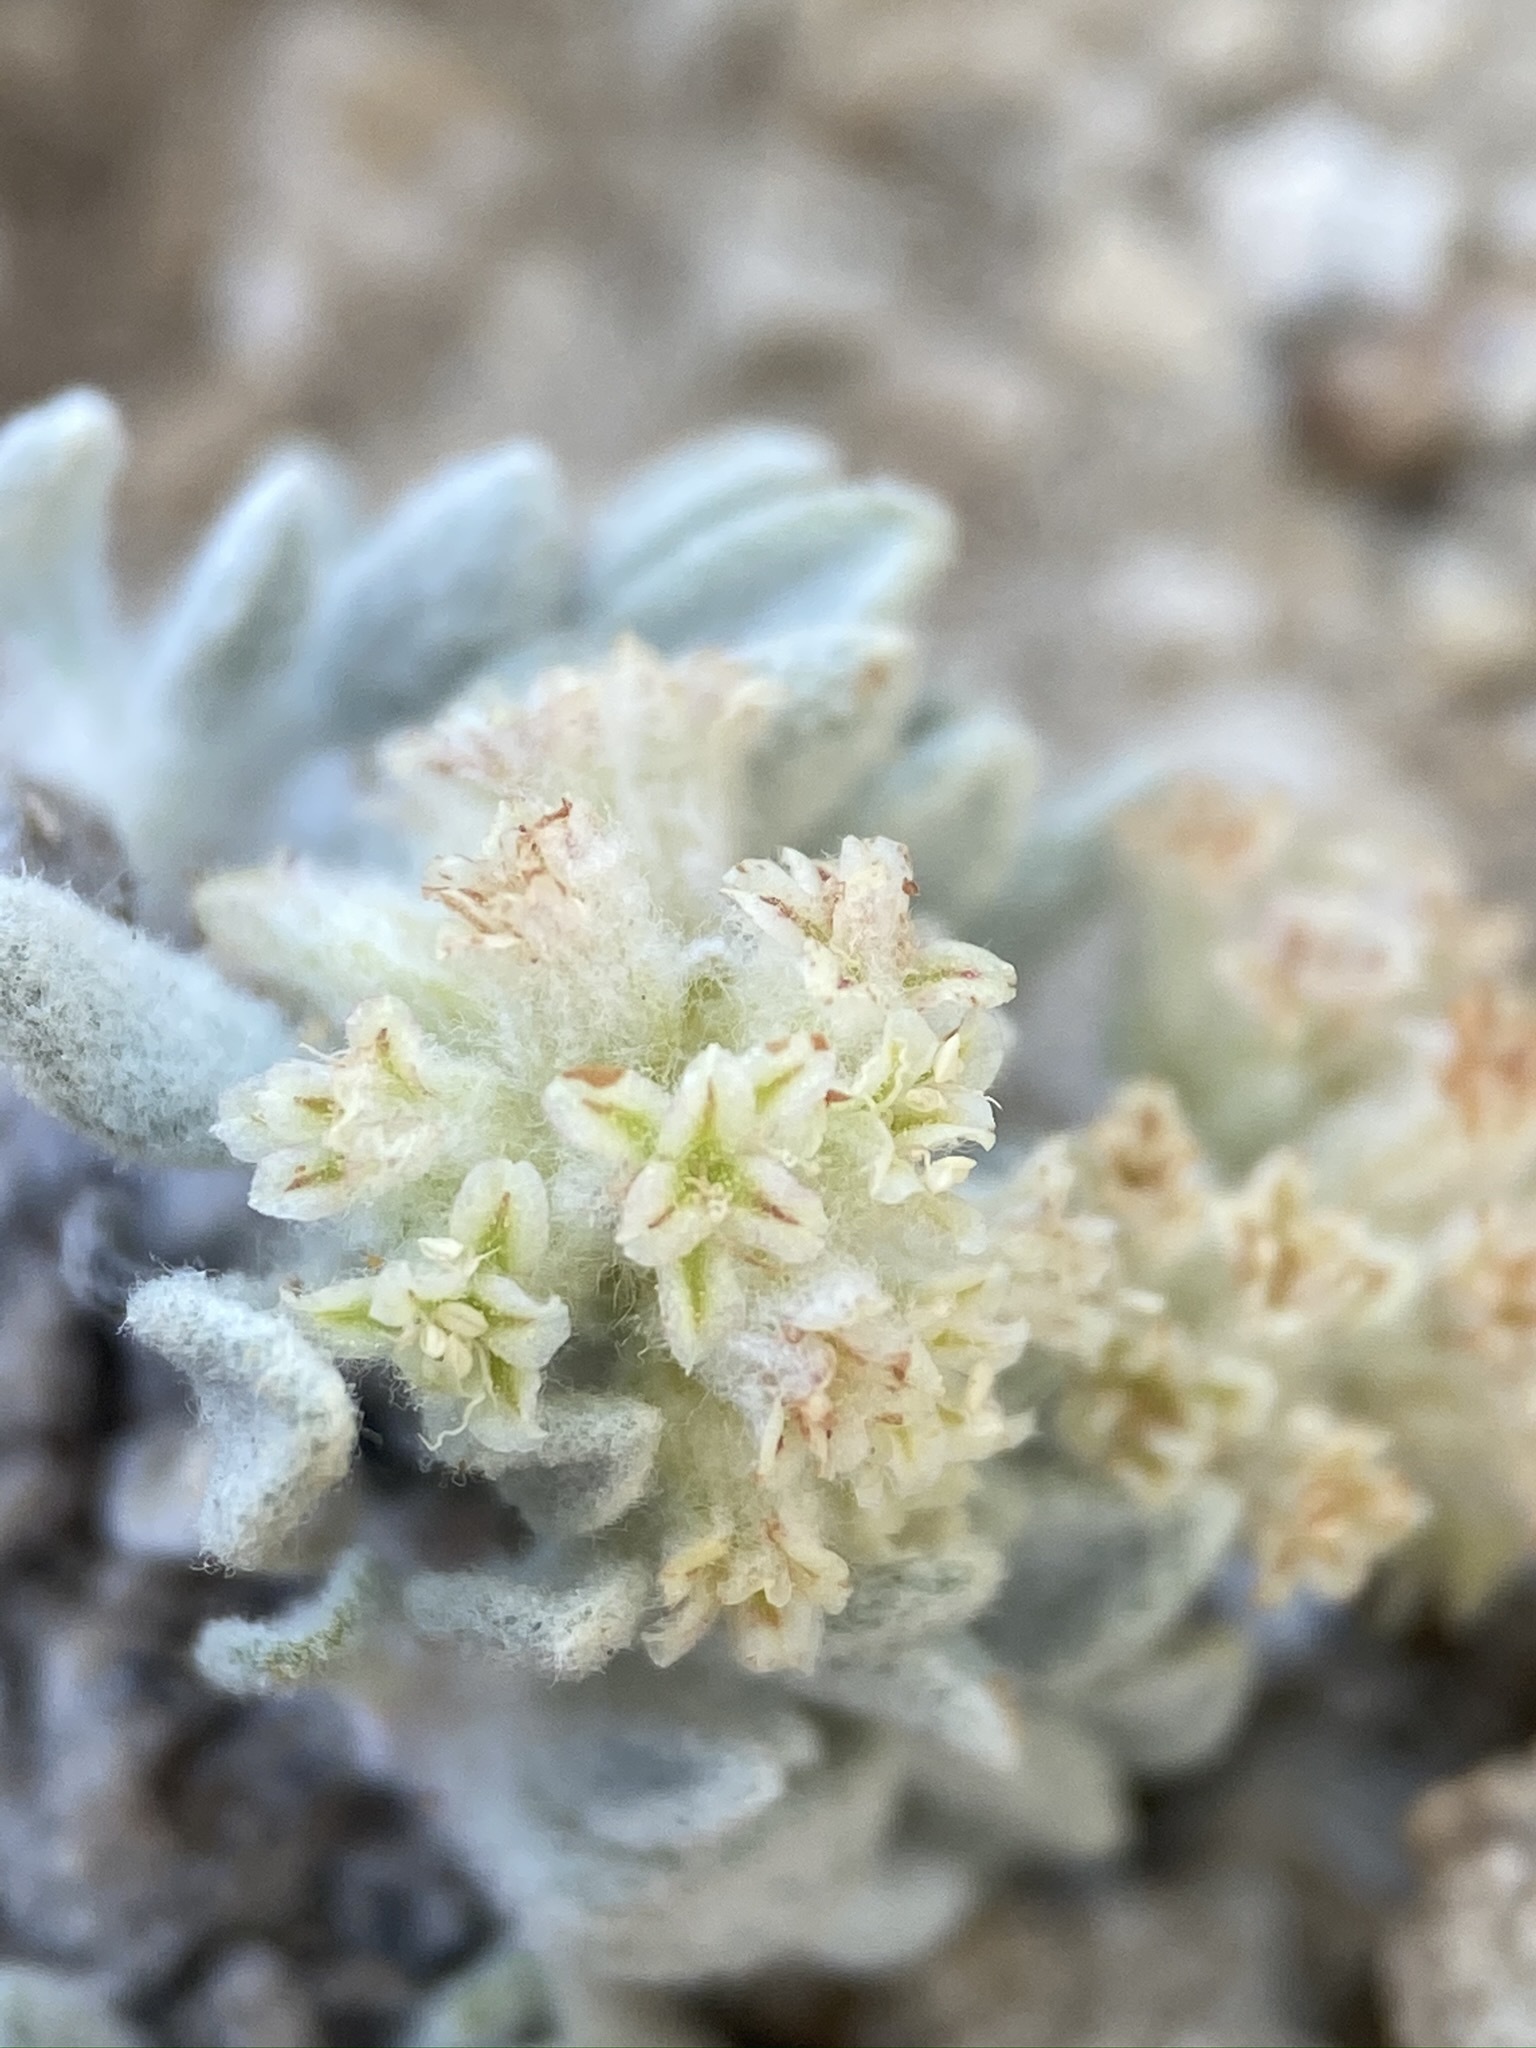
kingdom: Plantae
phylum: Tracheophyta
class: Magnoliopsida
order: Caryophyllales
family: Polygonaceae
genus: Eriogonum
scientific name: Eriogonum shockleyi
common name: Shockley's wild buckwheat
